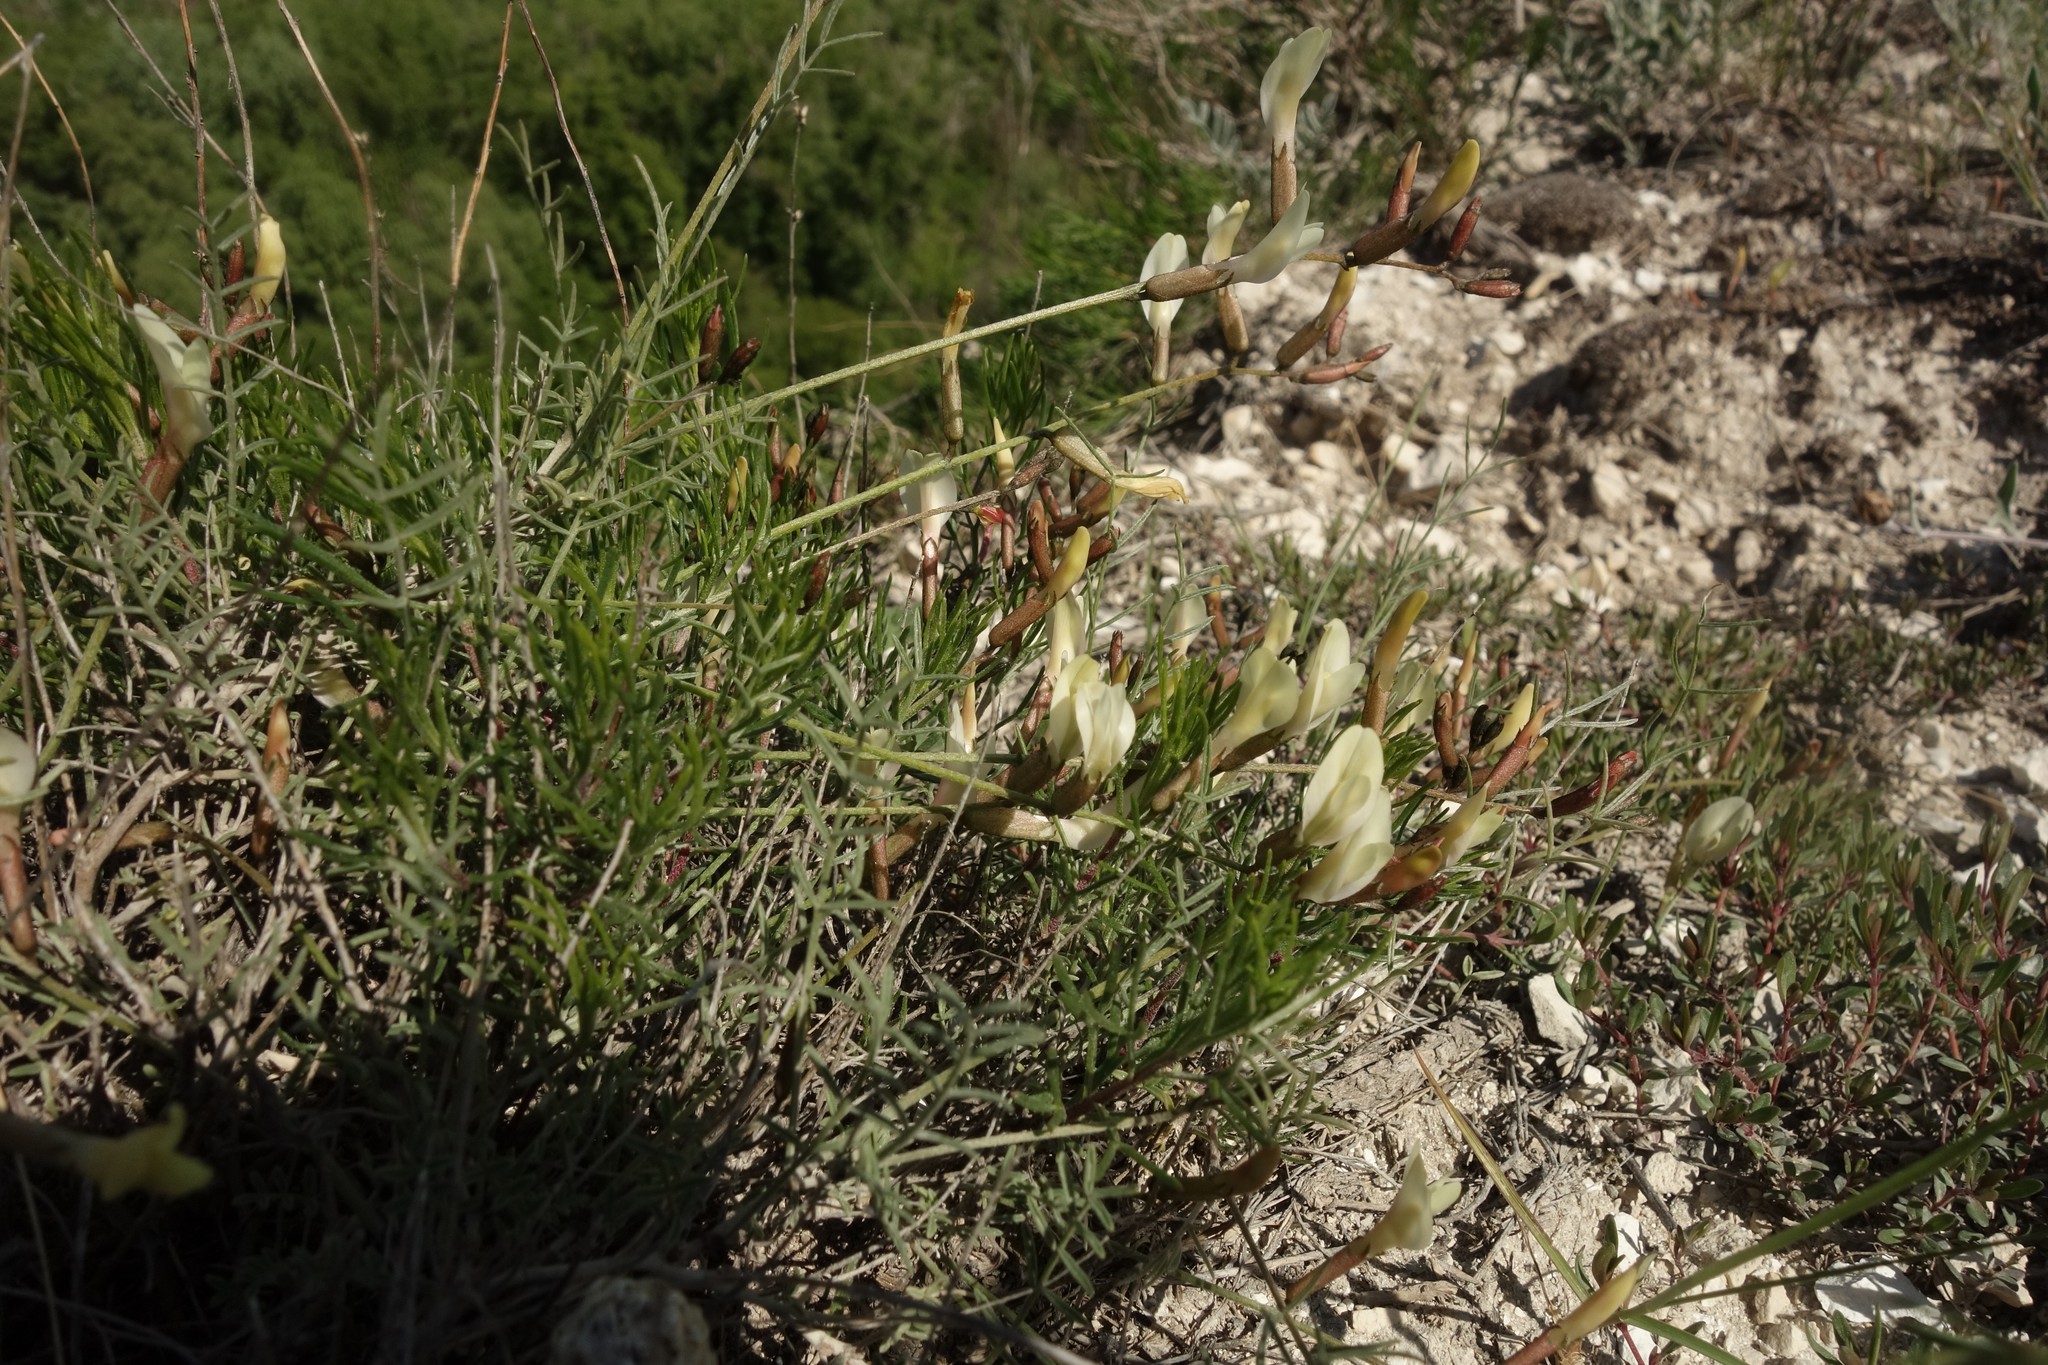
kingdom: Plantae
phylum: Tracheophyta
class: Magnoliopsida
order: Fabales
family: Fabaceae
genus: Astragalus
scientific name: Astragalus ucrainicus
